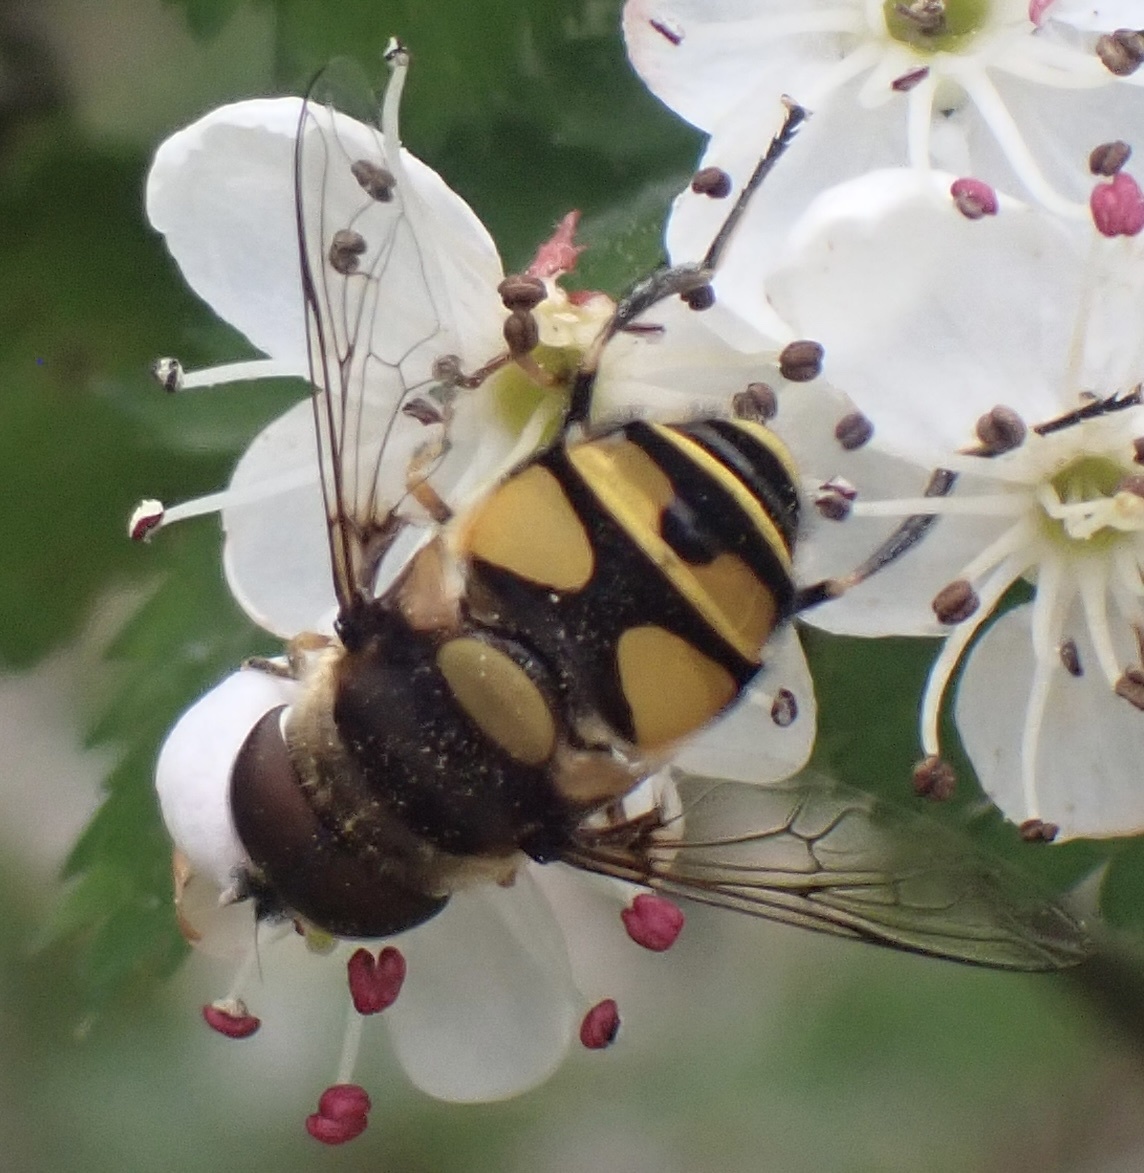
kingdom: Animalia
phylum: Arthropoda
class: Insecta
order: Diptera
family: Syrphidae
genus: Eristalis
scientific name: Eristalis transversa
